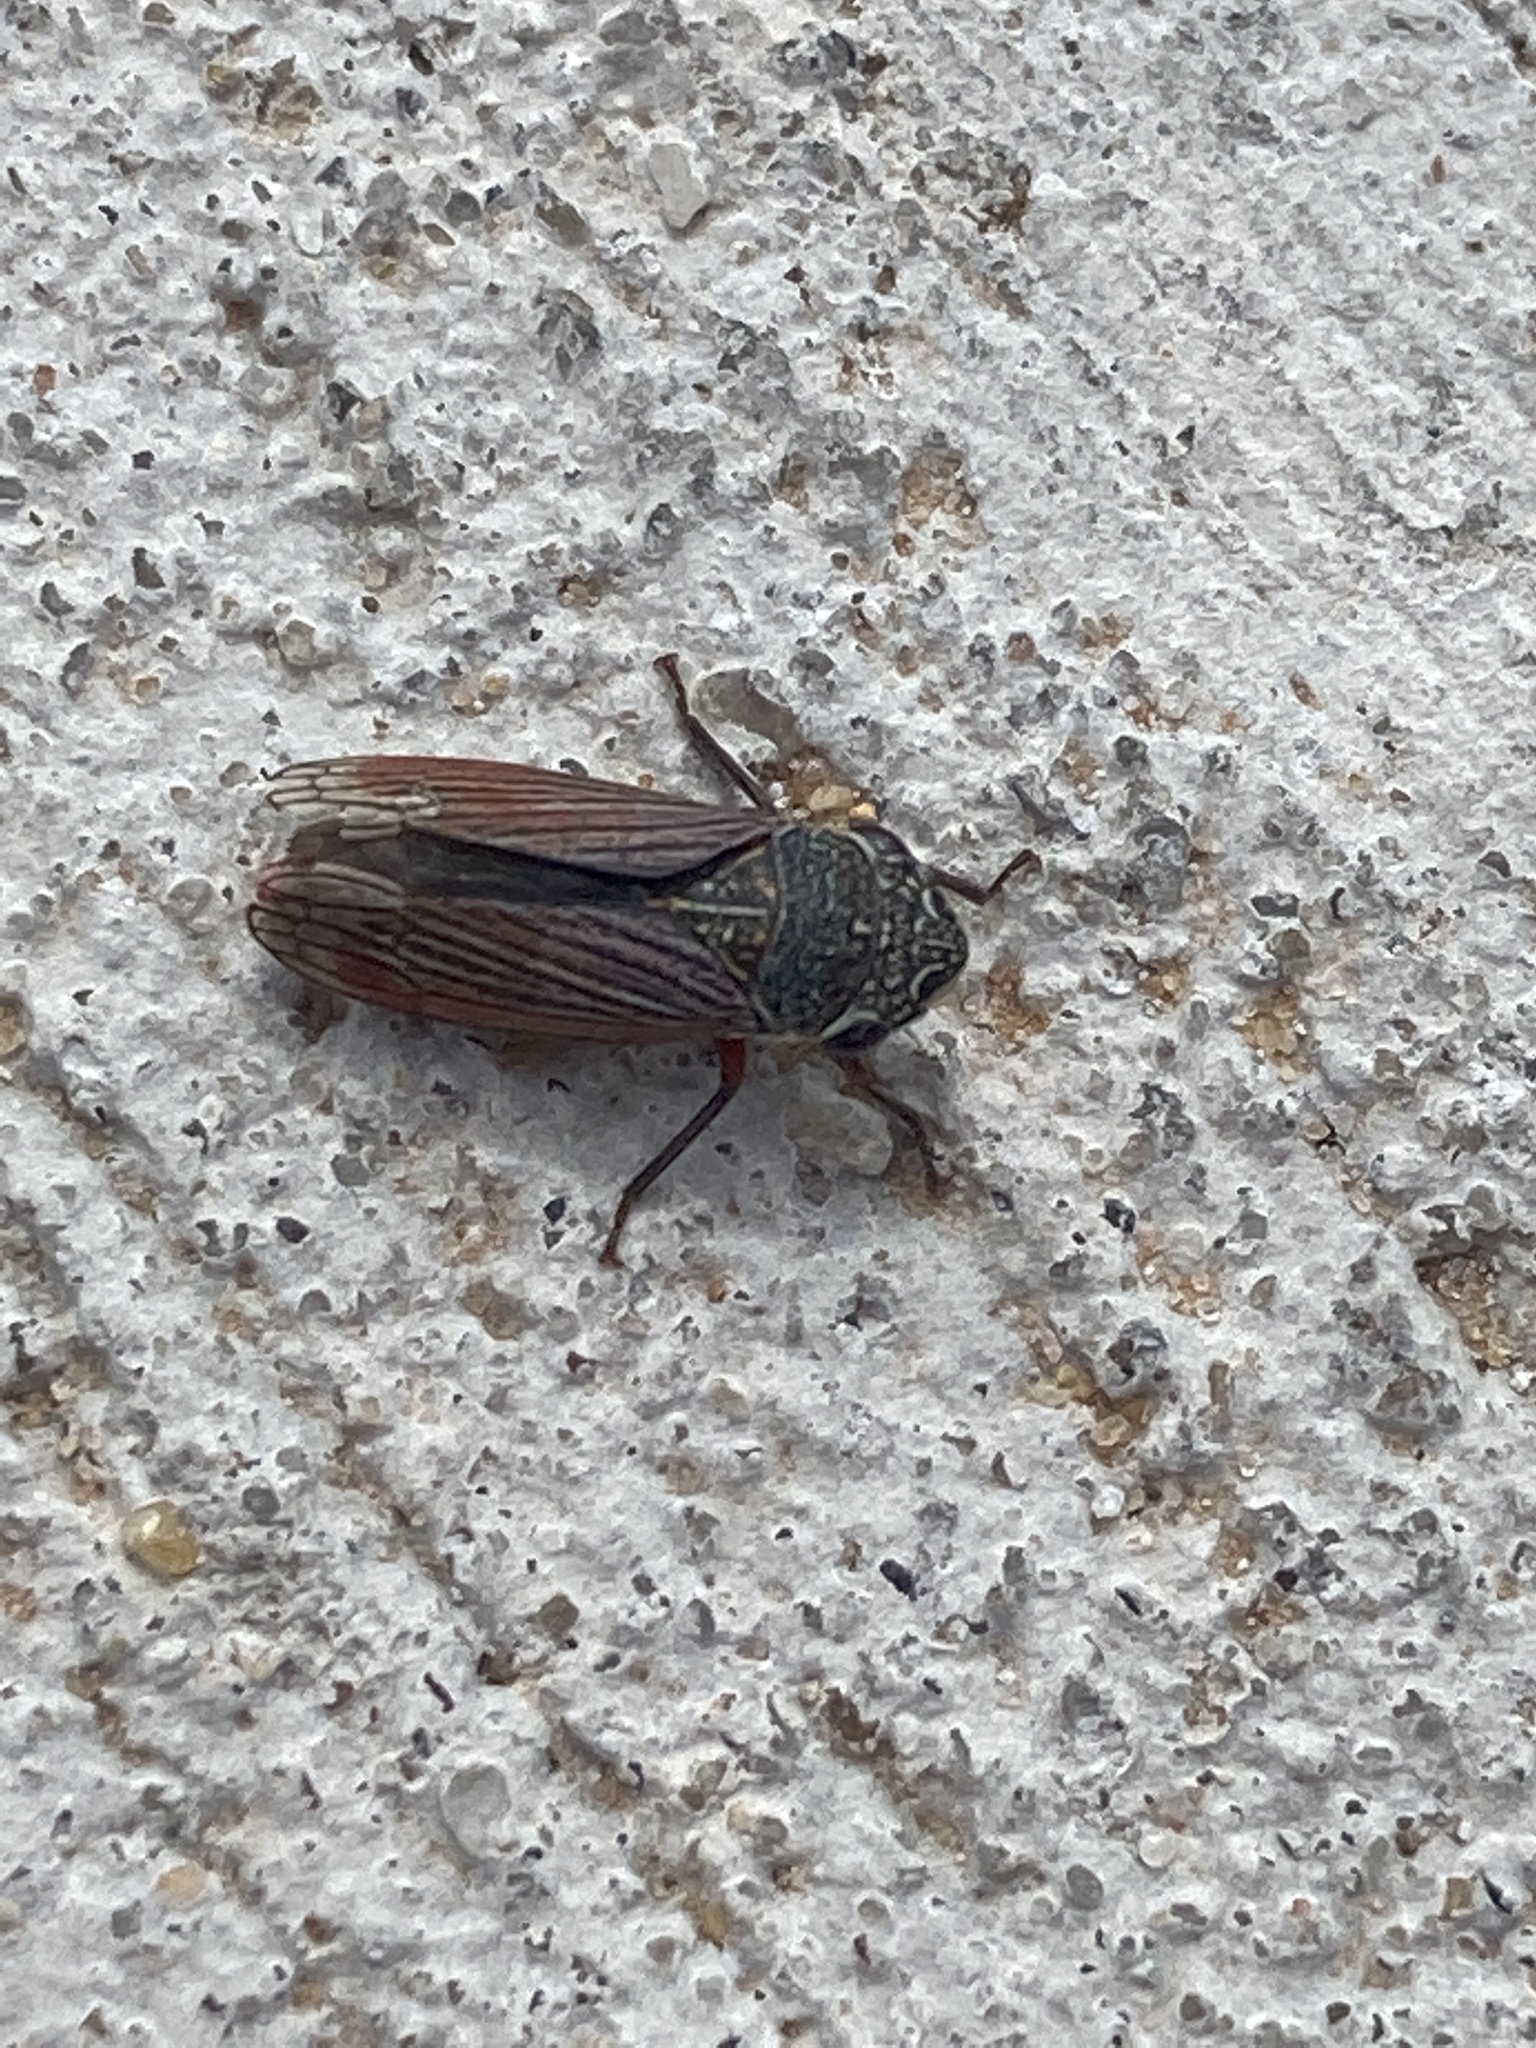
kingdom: Animalia
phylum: Arthropoda
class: Insecta
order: Hemiptera
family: Cicadellidae
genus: Cuerna
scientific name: Cuerna costalis
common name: Lateral-lined sharpshooter
